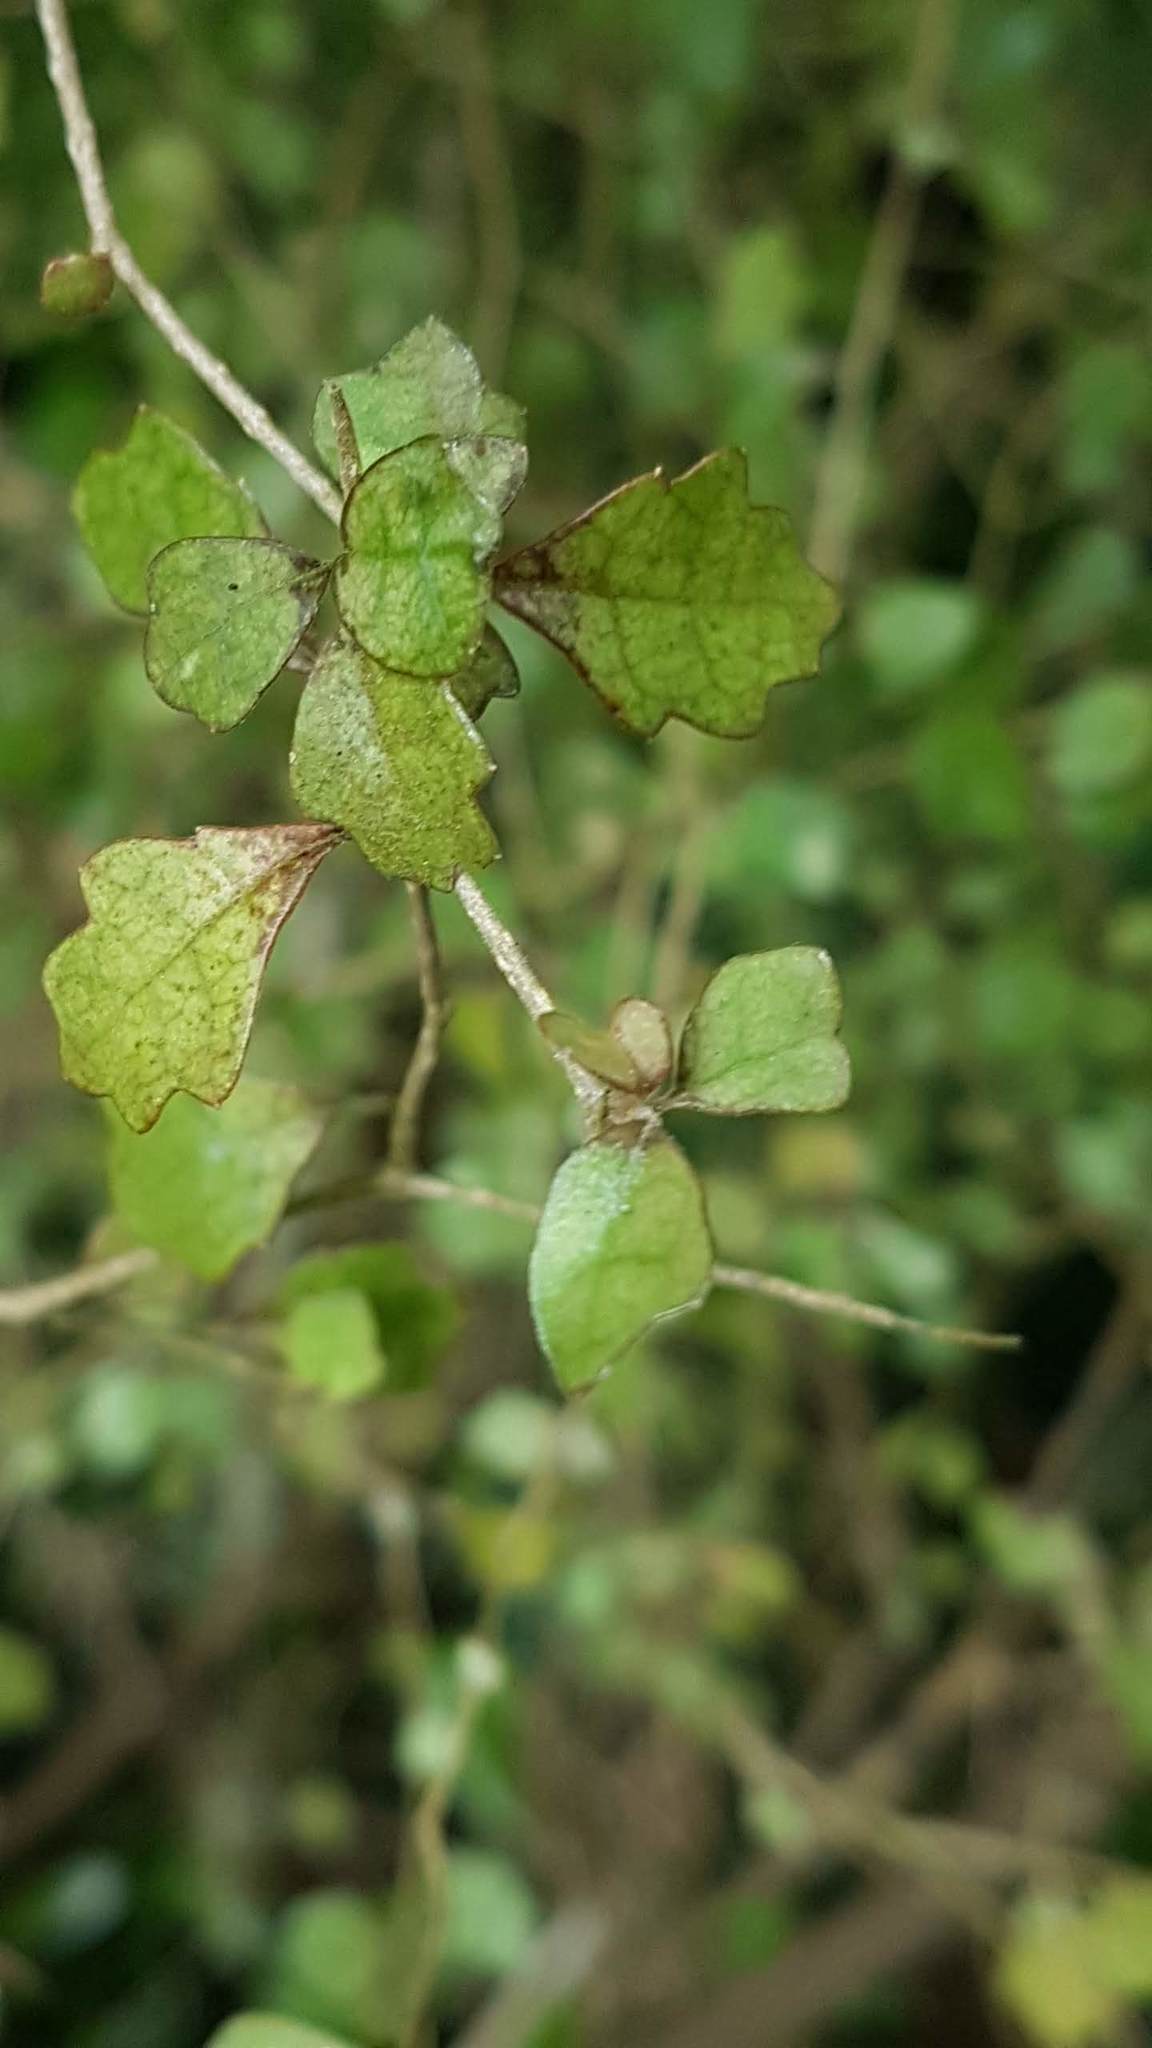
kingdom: Plantae
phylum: Tracheophyta
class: Magnoliopsida
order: Malpighiales
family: Violaceae
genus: Melicytus
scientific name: Melicytus micranthus
